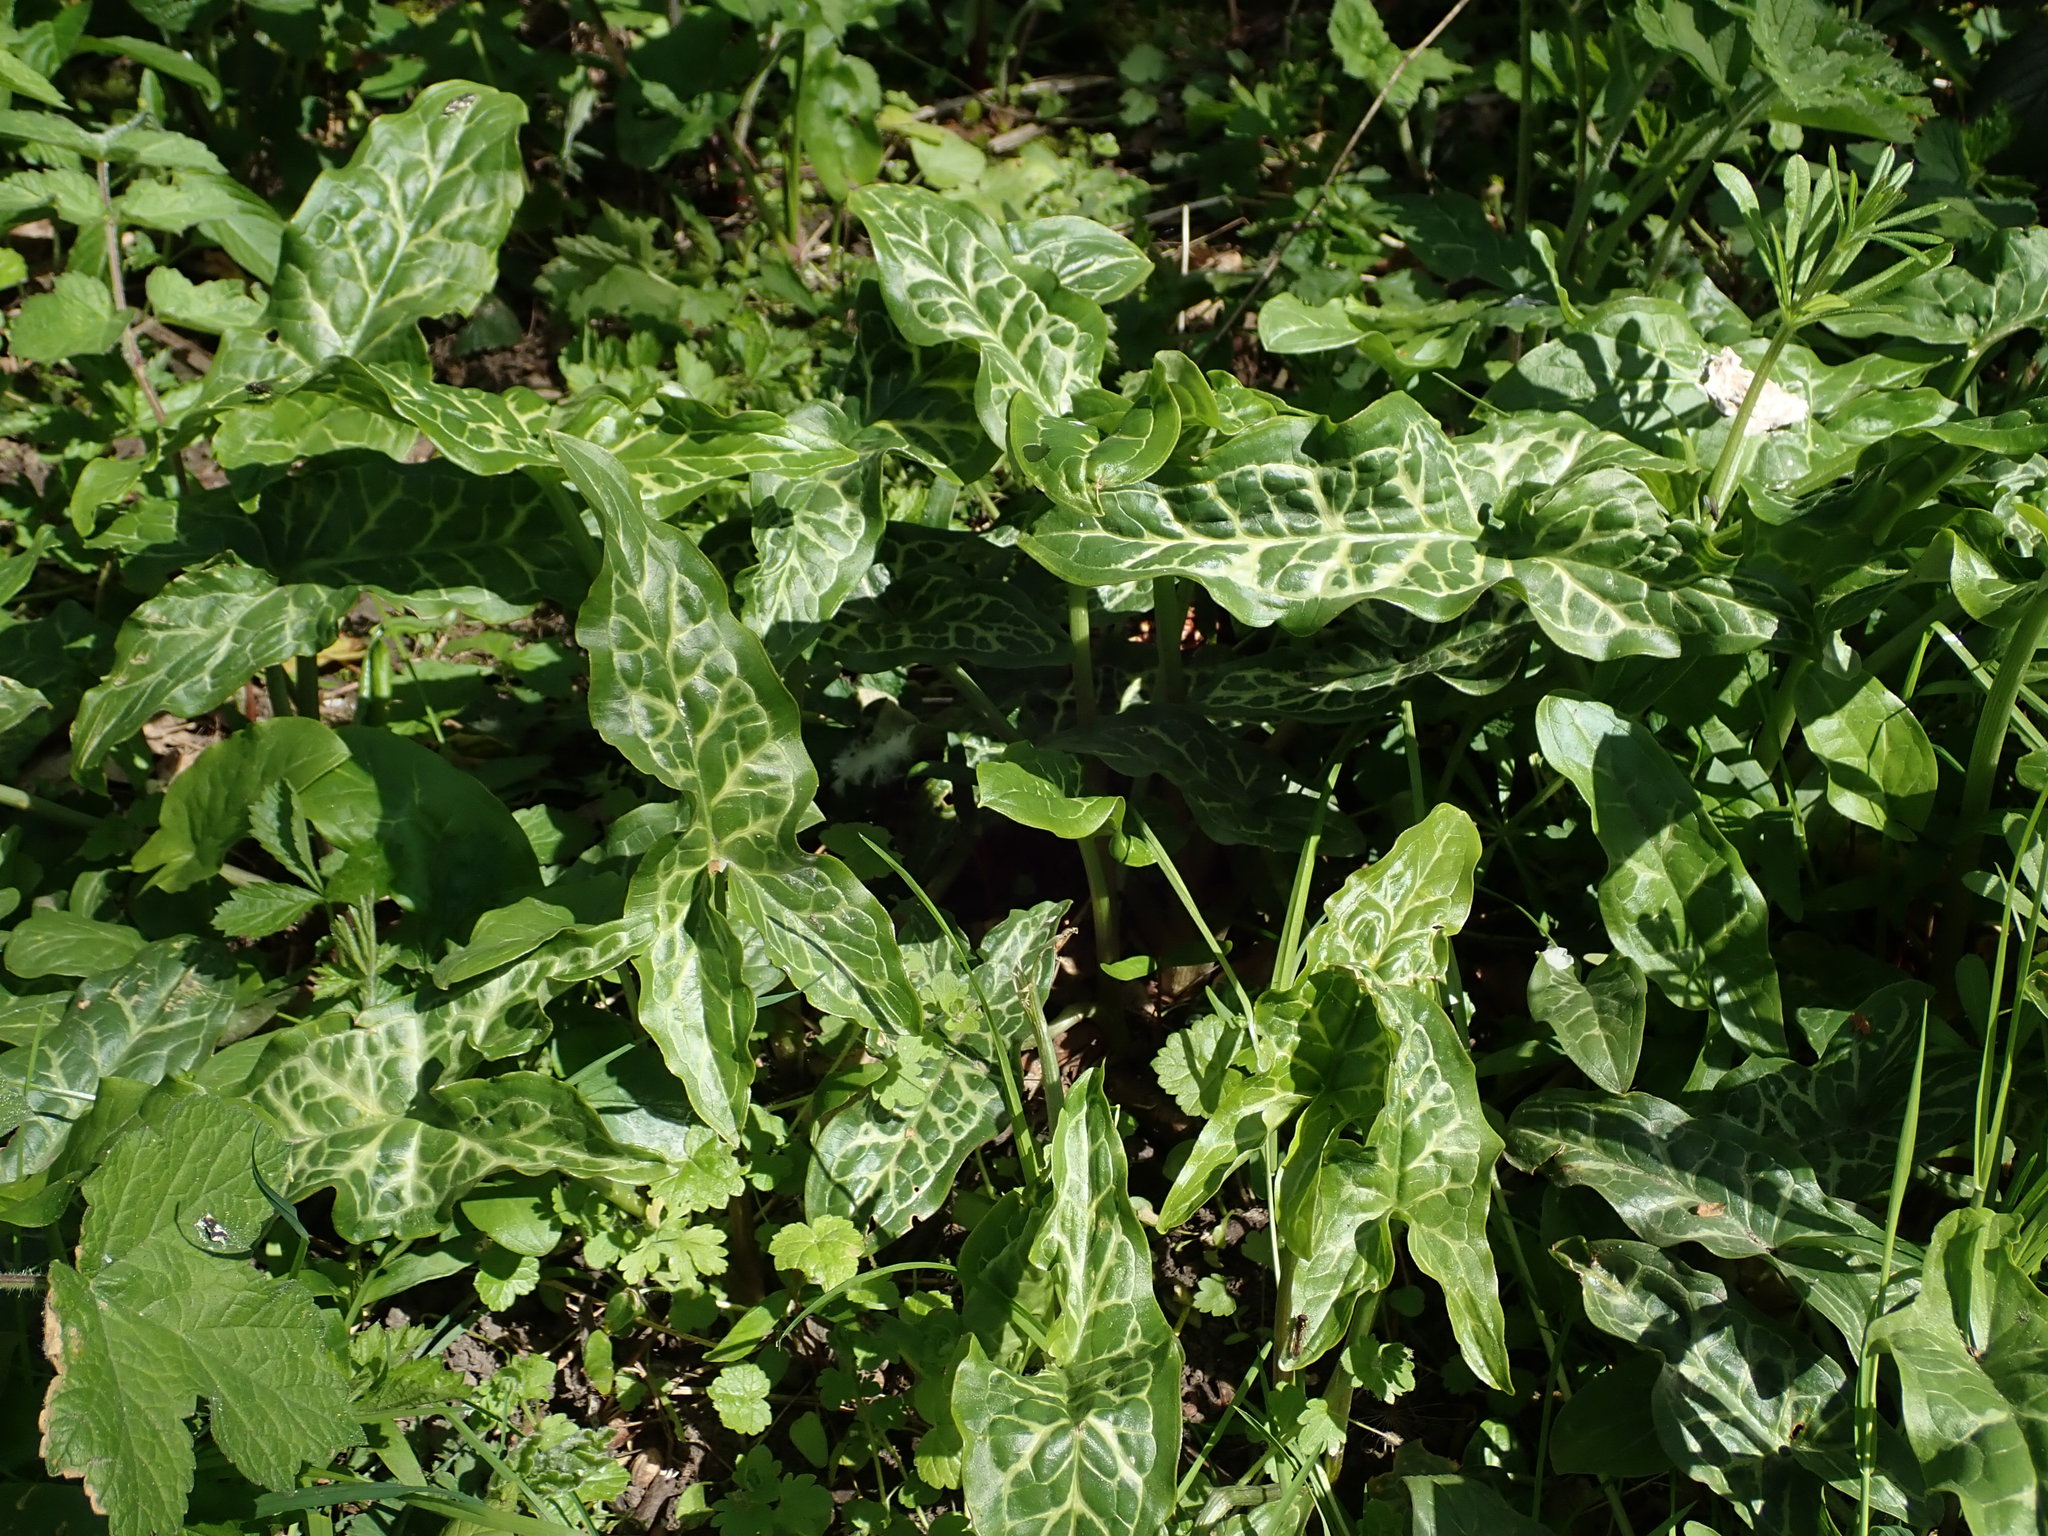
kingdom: Plantae
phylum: Tracheophyta
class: Liliopsida
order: Alismatales
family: Araceae
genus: Arum
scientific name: Arum italicum
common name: Italian lords-and-ladies
